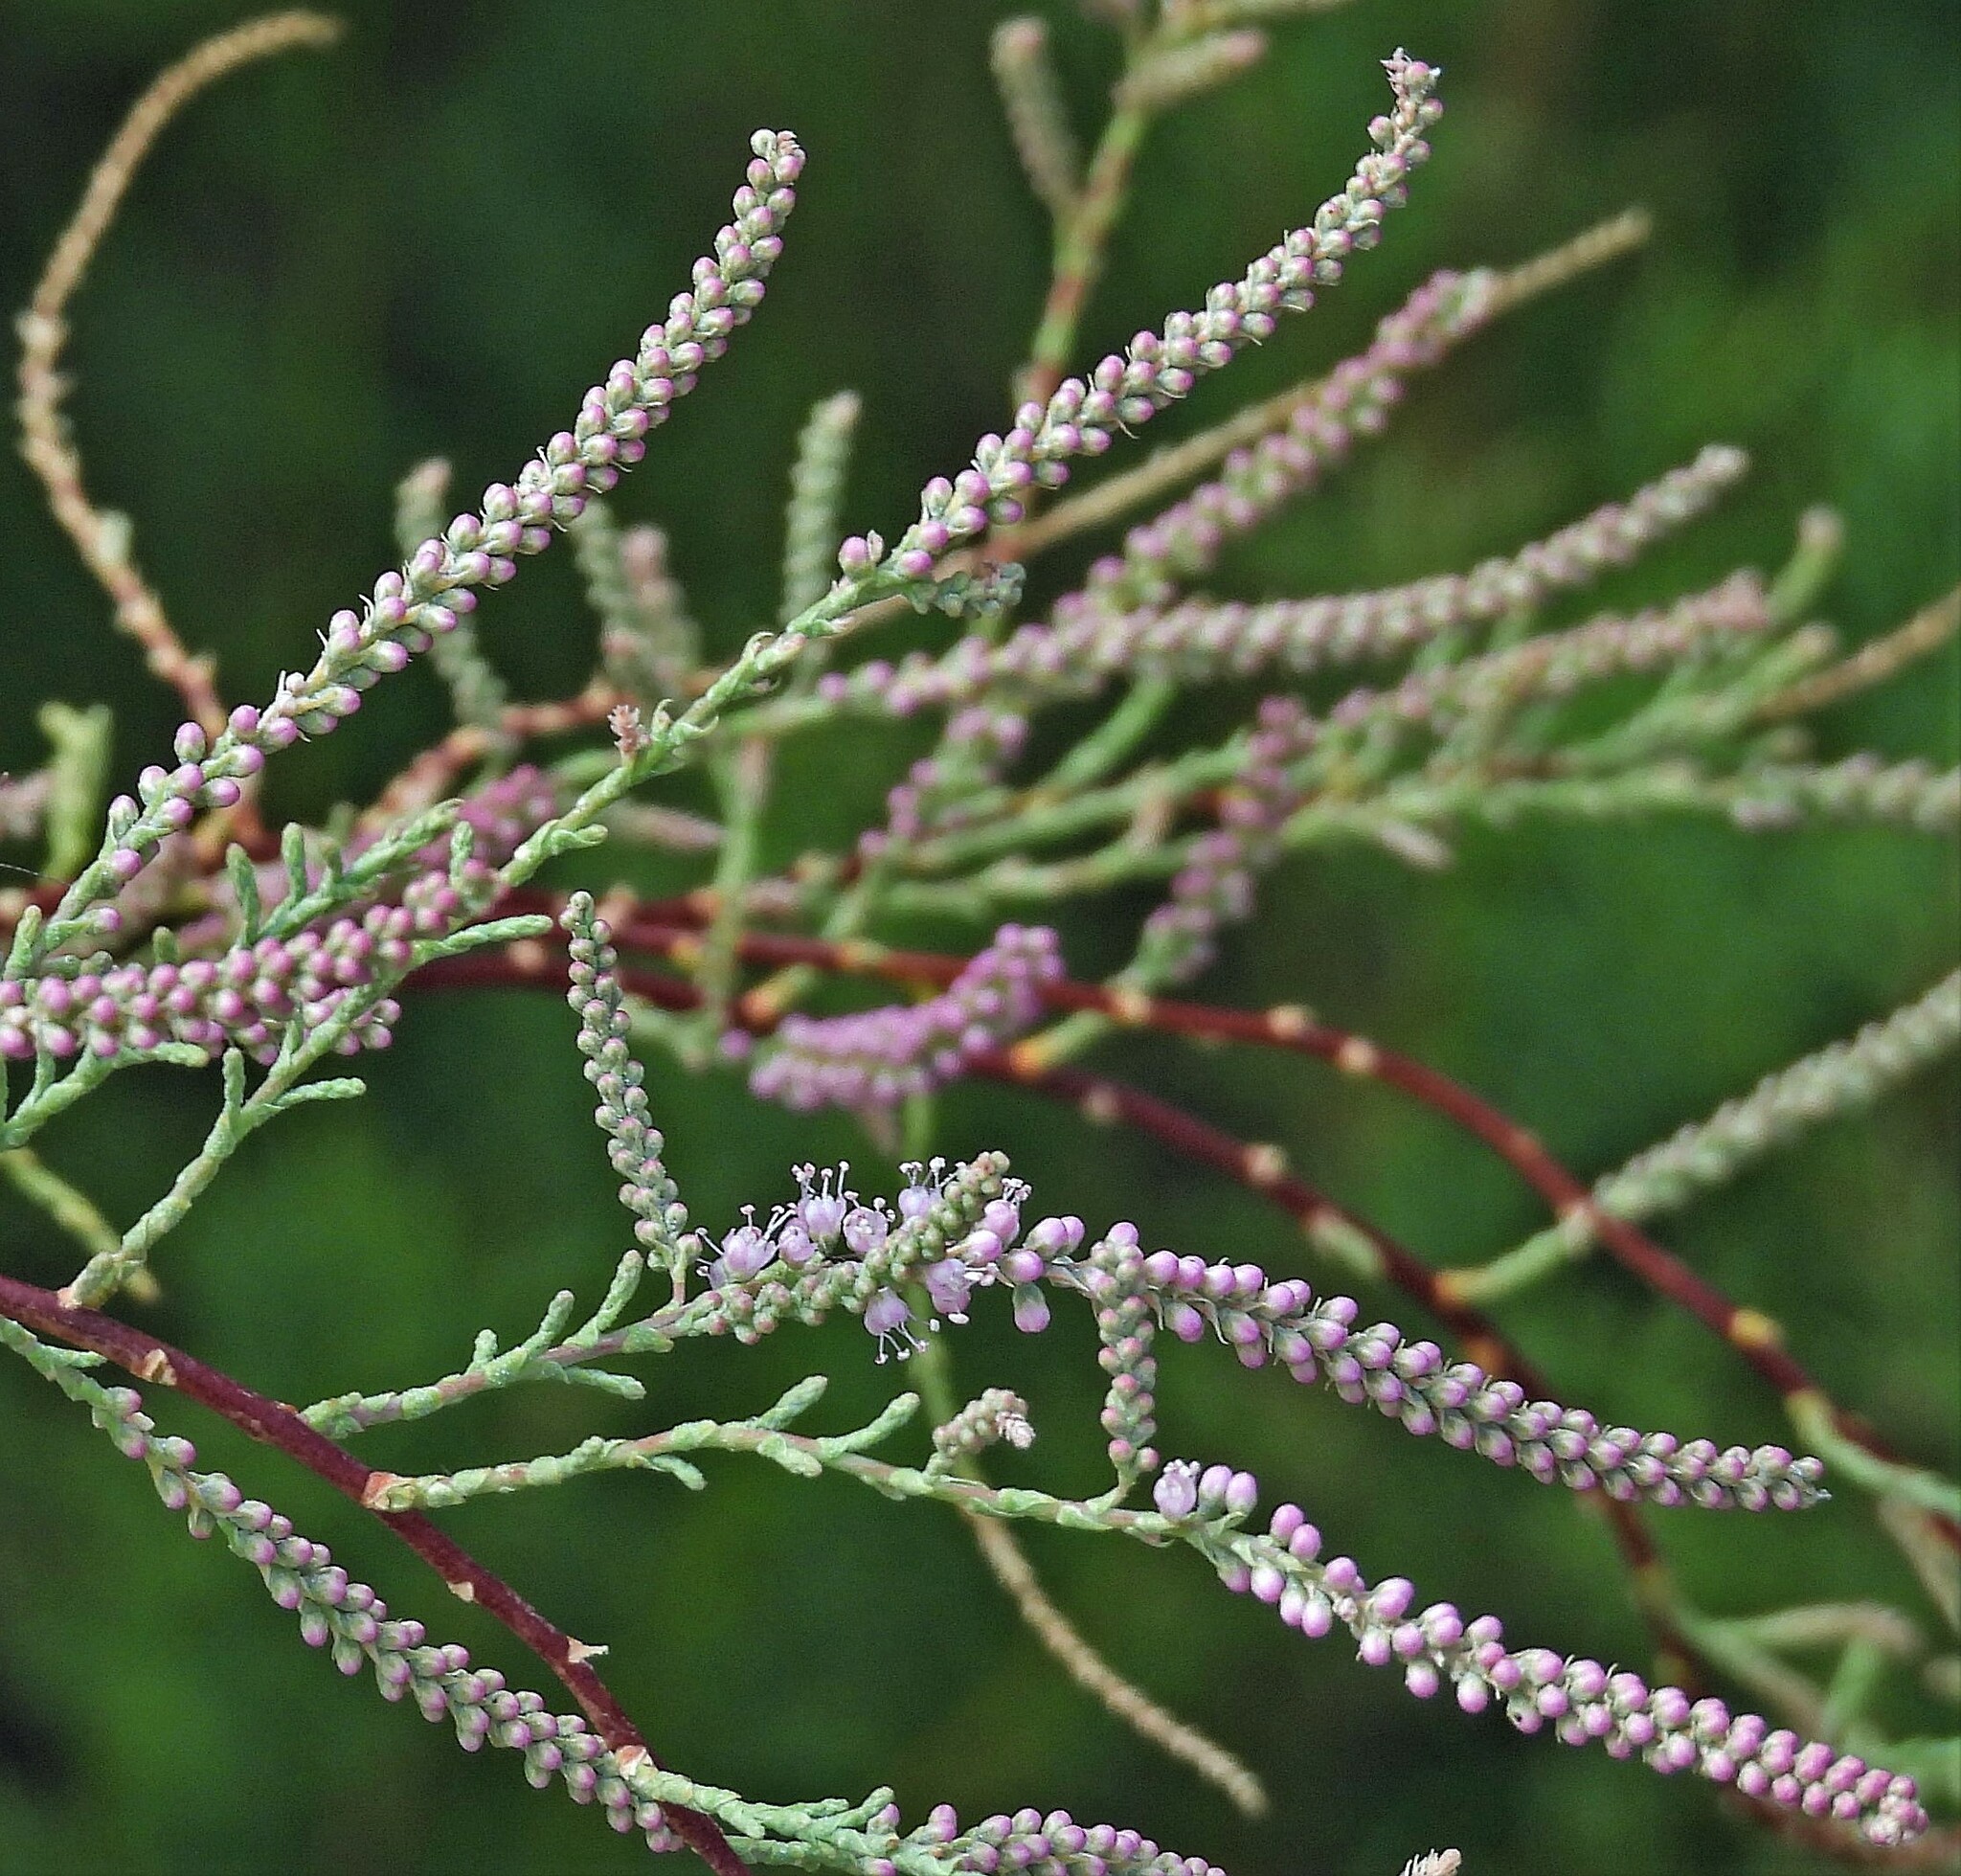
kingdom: Plantae
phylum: Tracheophyta
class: Magnoliopsida
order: Caryophyllales
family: Tamaricaceae
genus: Tamarix
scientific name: Tamarix chinensis
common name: Chinese tamarisk
